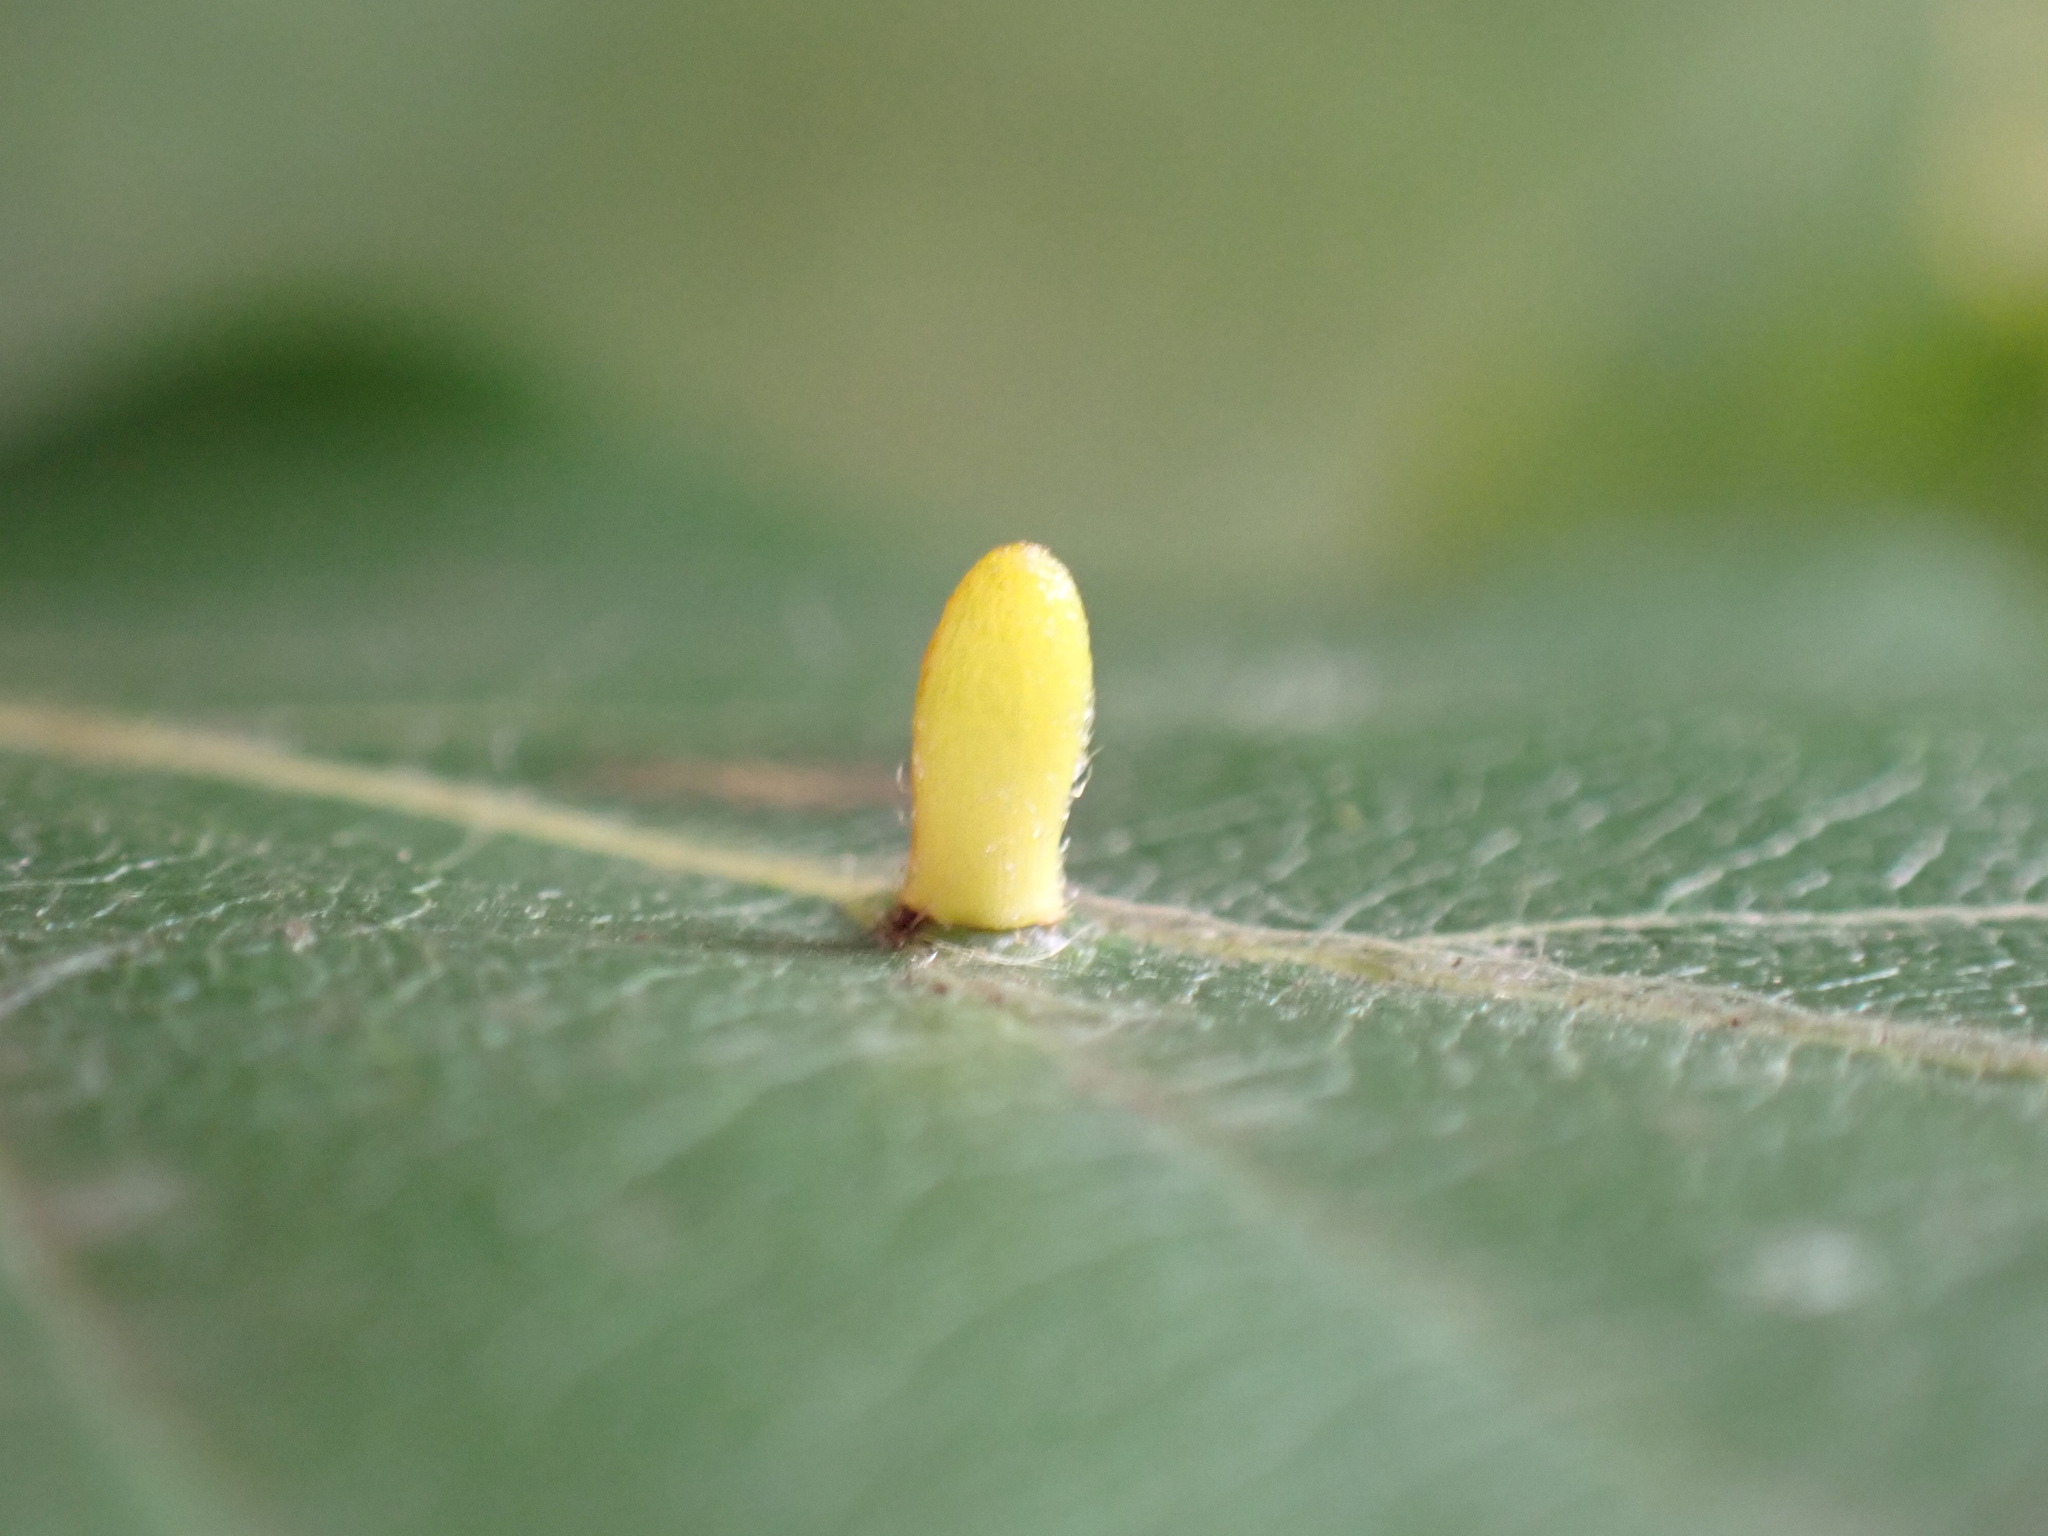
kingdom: Animalia
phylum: Arthropoda
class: Insecta
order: Diptera
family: Cecidomyiidae
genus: Hartigiola
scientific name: Hartigiola annulipes
